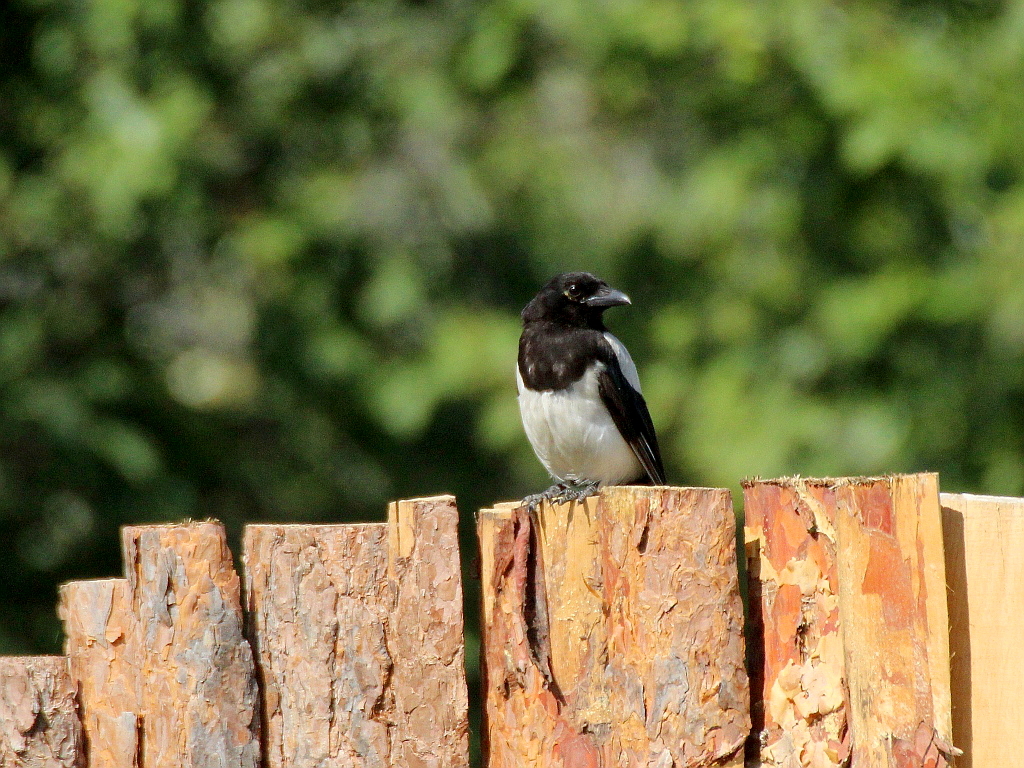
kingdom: Animalia
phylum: Chordata
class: Aves
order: Passeriformes
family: Corvidae
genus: Pica
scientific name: Pica pica
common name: Eurasian magpie
